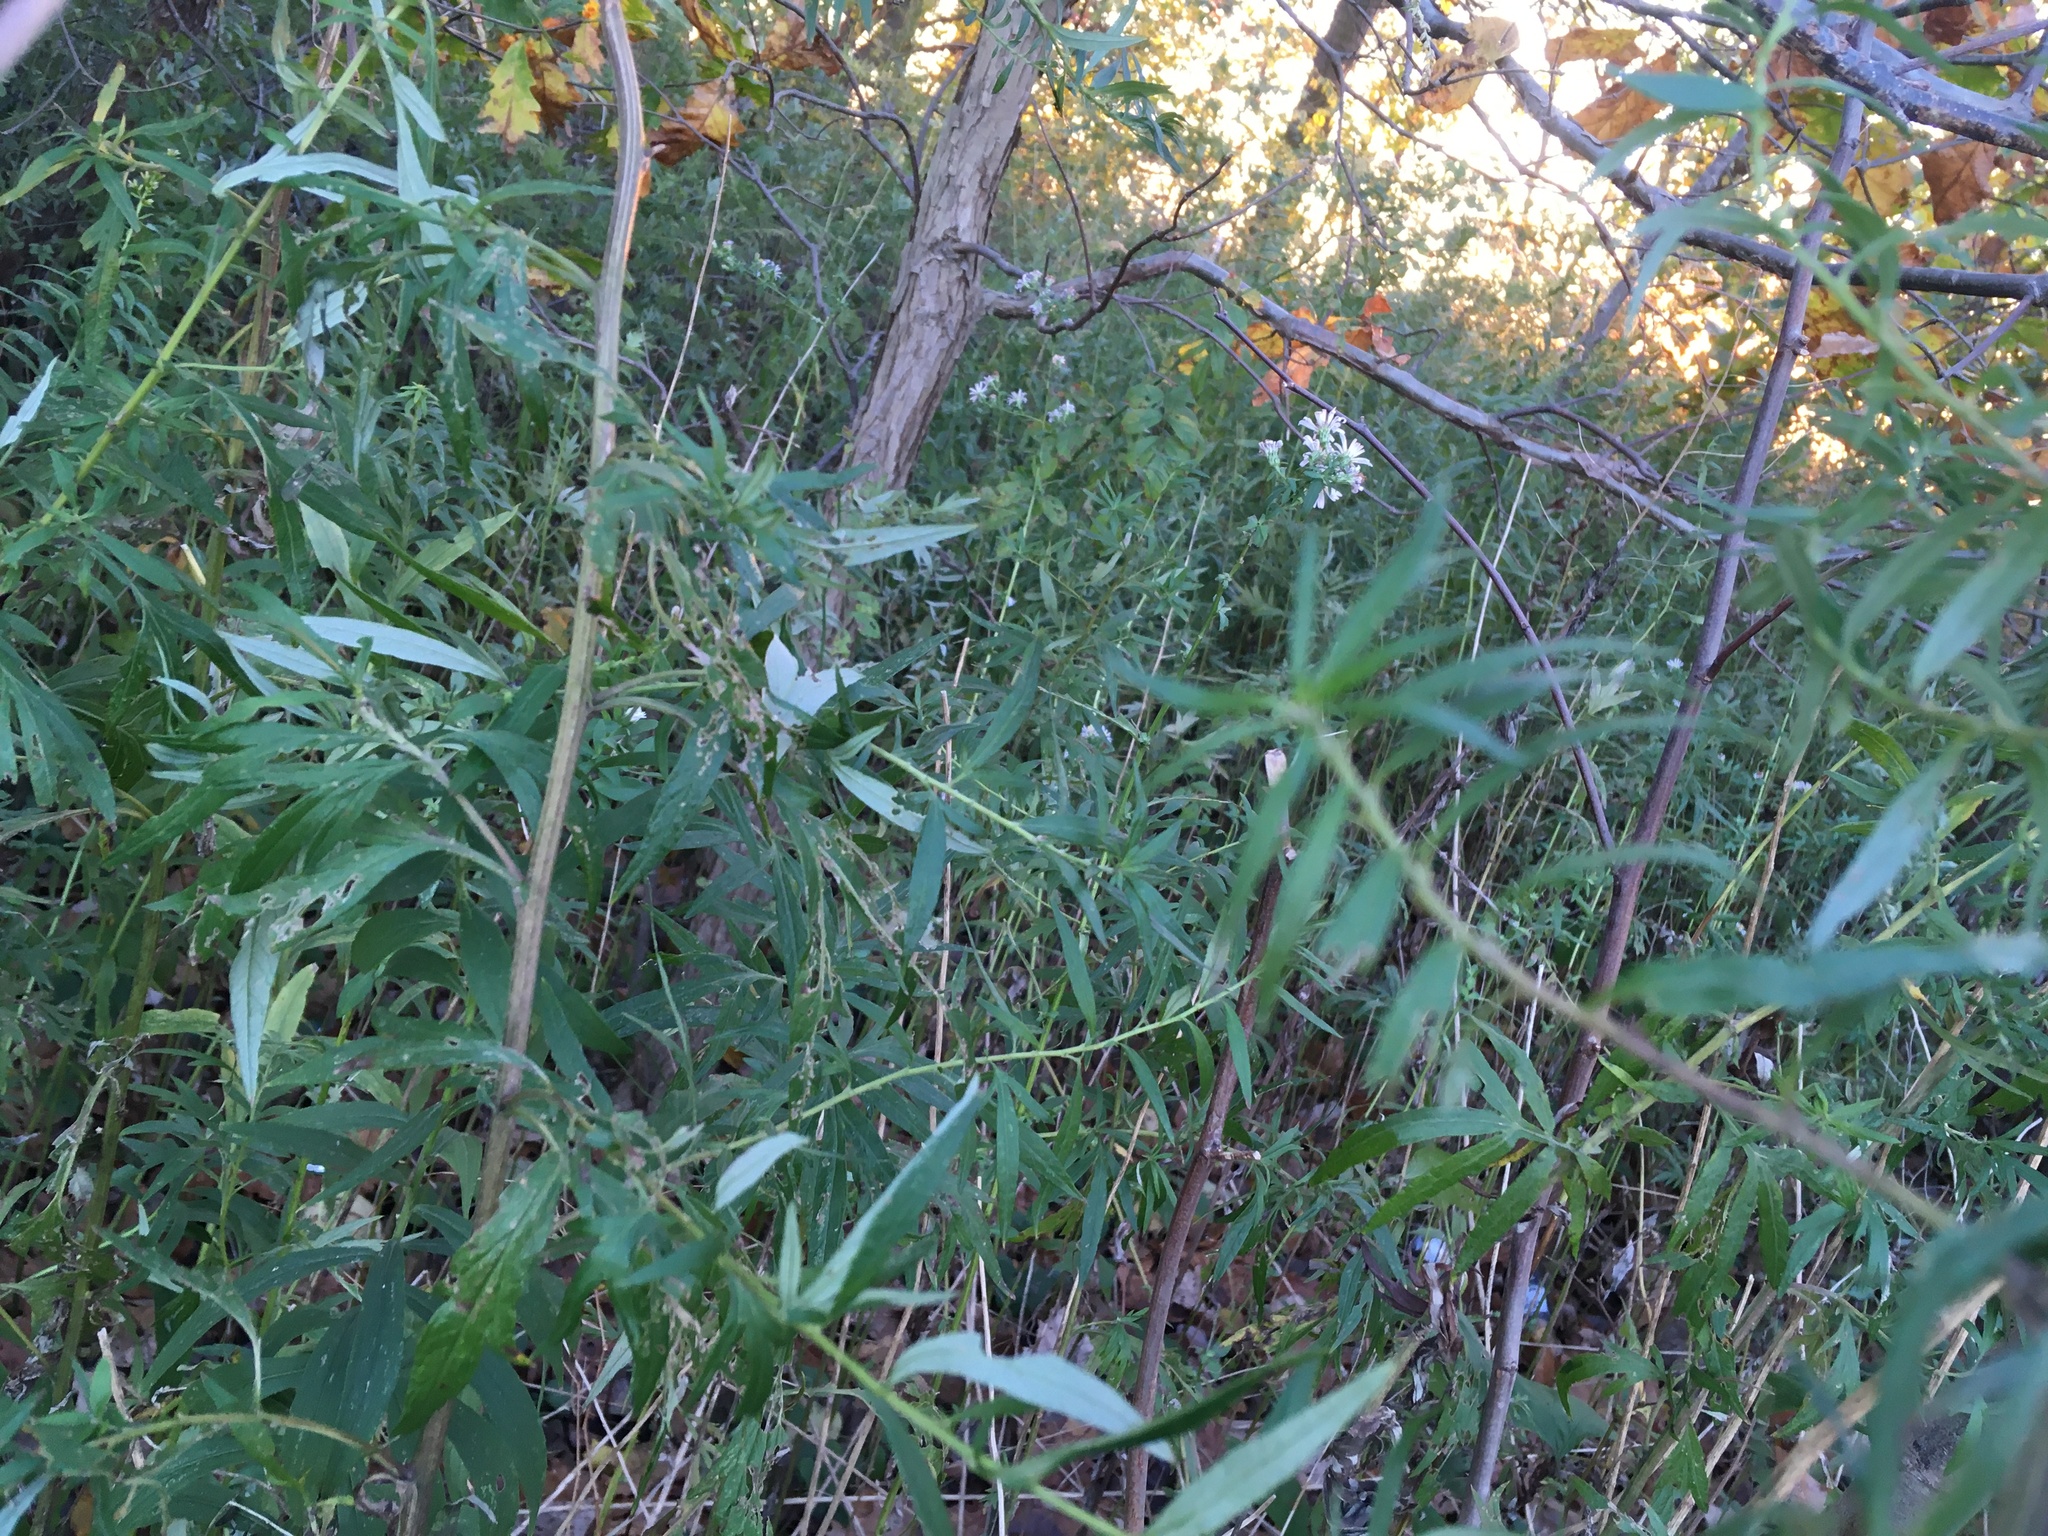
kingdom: Plantae
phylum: Tracheophyta
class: Magnoliopsida
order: Asterales
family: Asteraceae
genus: Artemisia
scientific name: Artemisia vulgaris
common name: Mugwort
